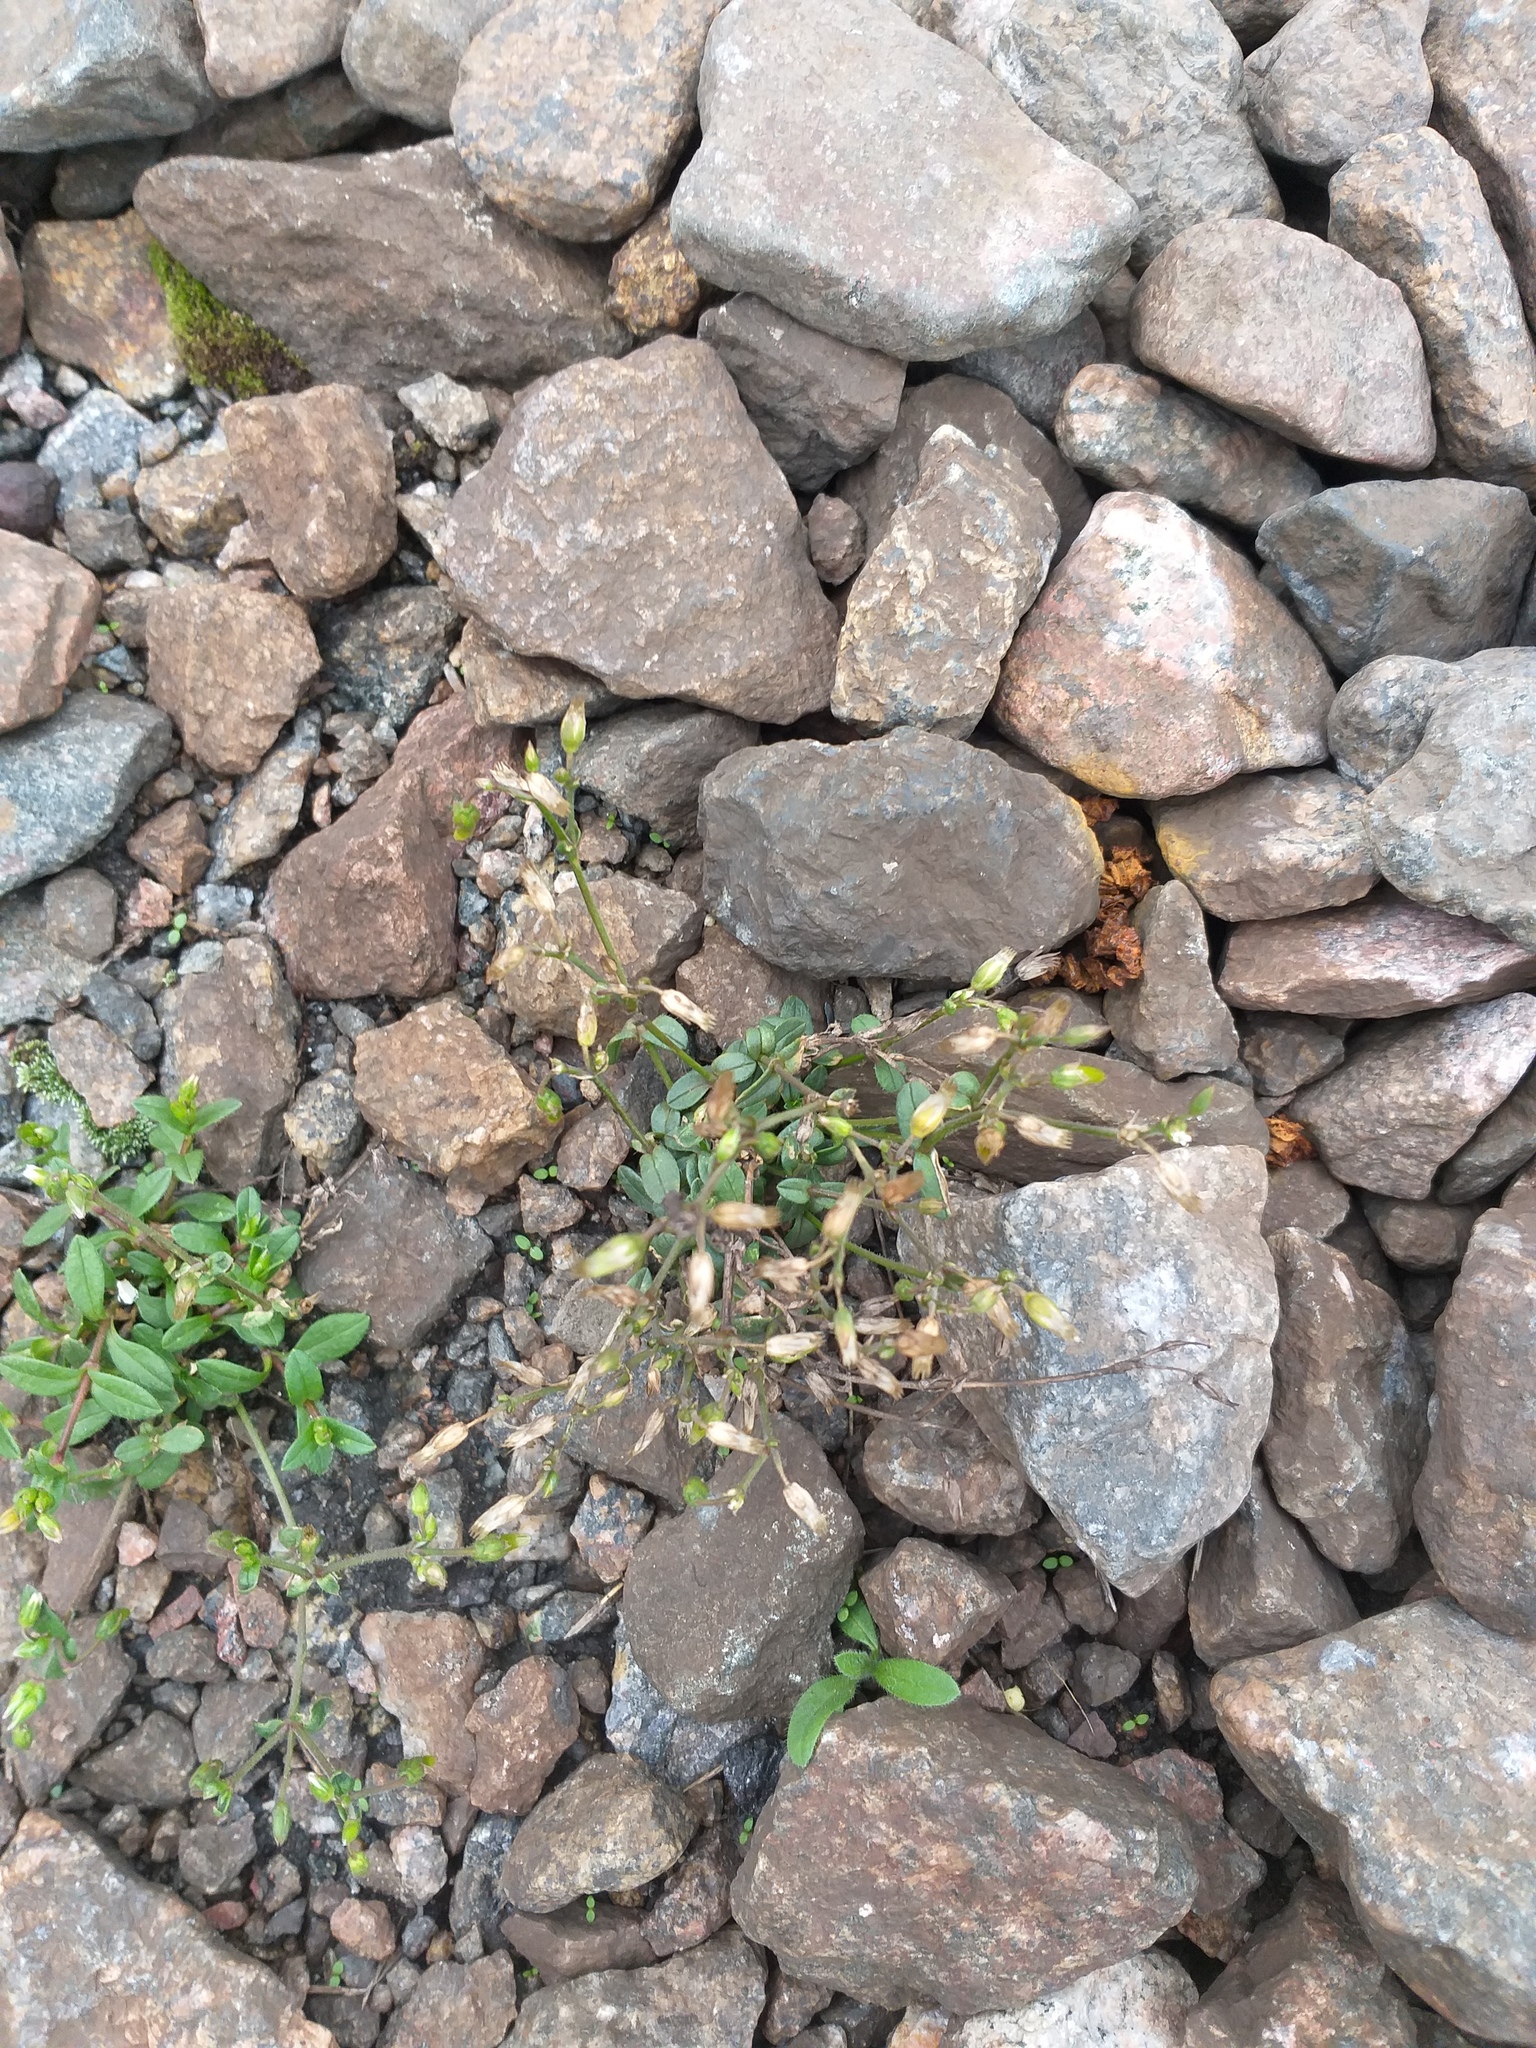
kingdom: Plantae
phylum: Tracheophyta
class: Magnoliopsida
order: Caryophyllales
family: Caryophyllaceae
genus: Cerastium
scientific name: Cerastium holosteoides
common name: Big chickweed
